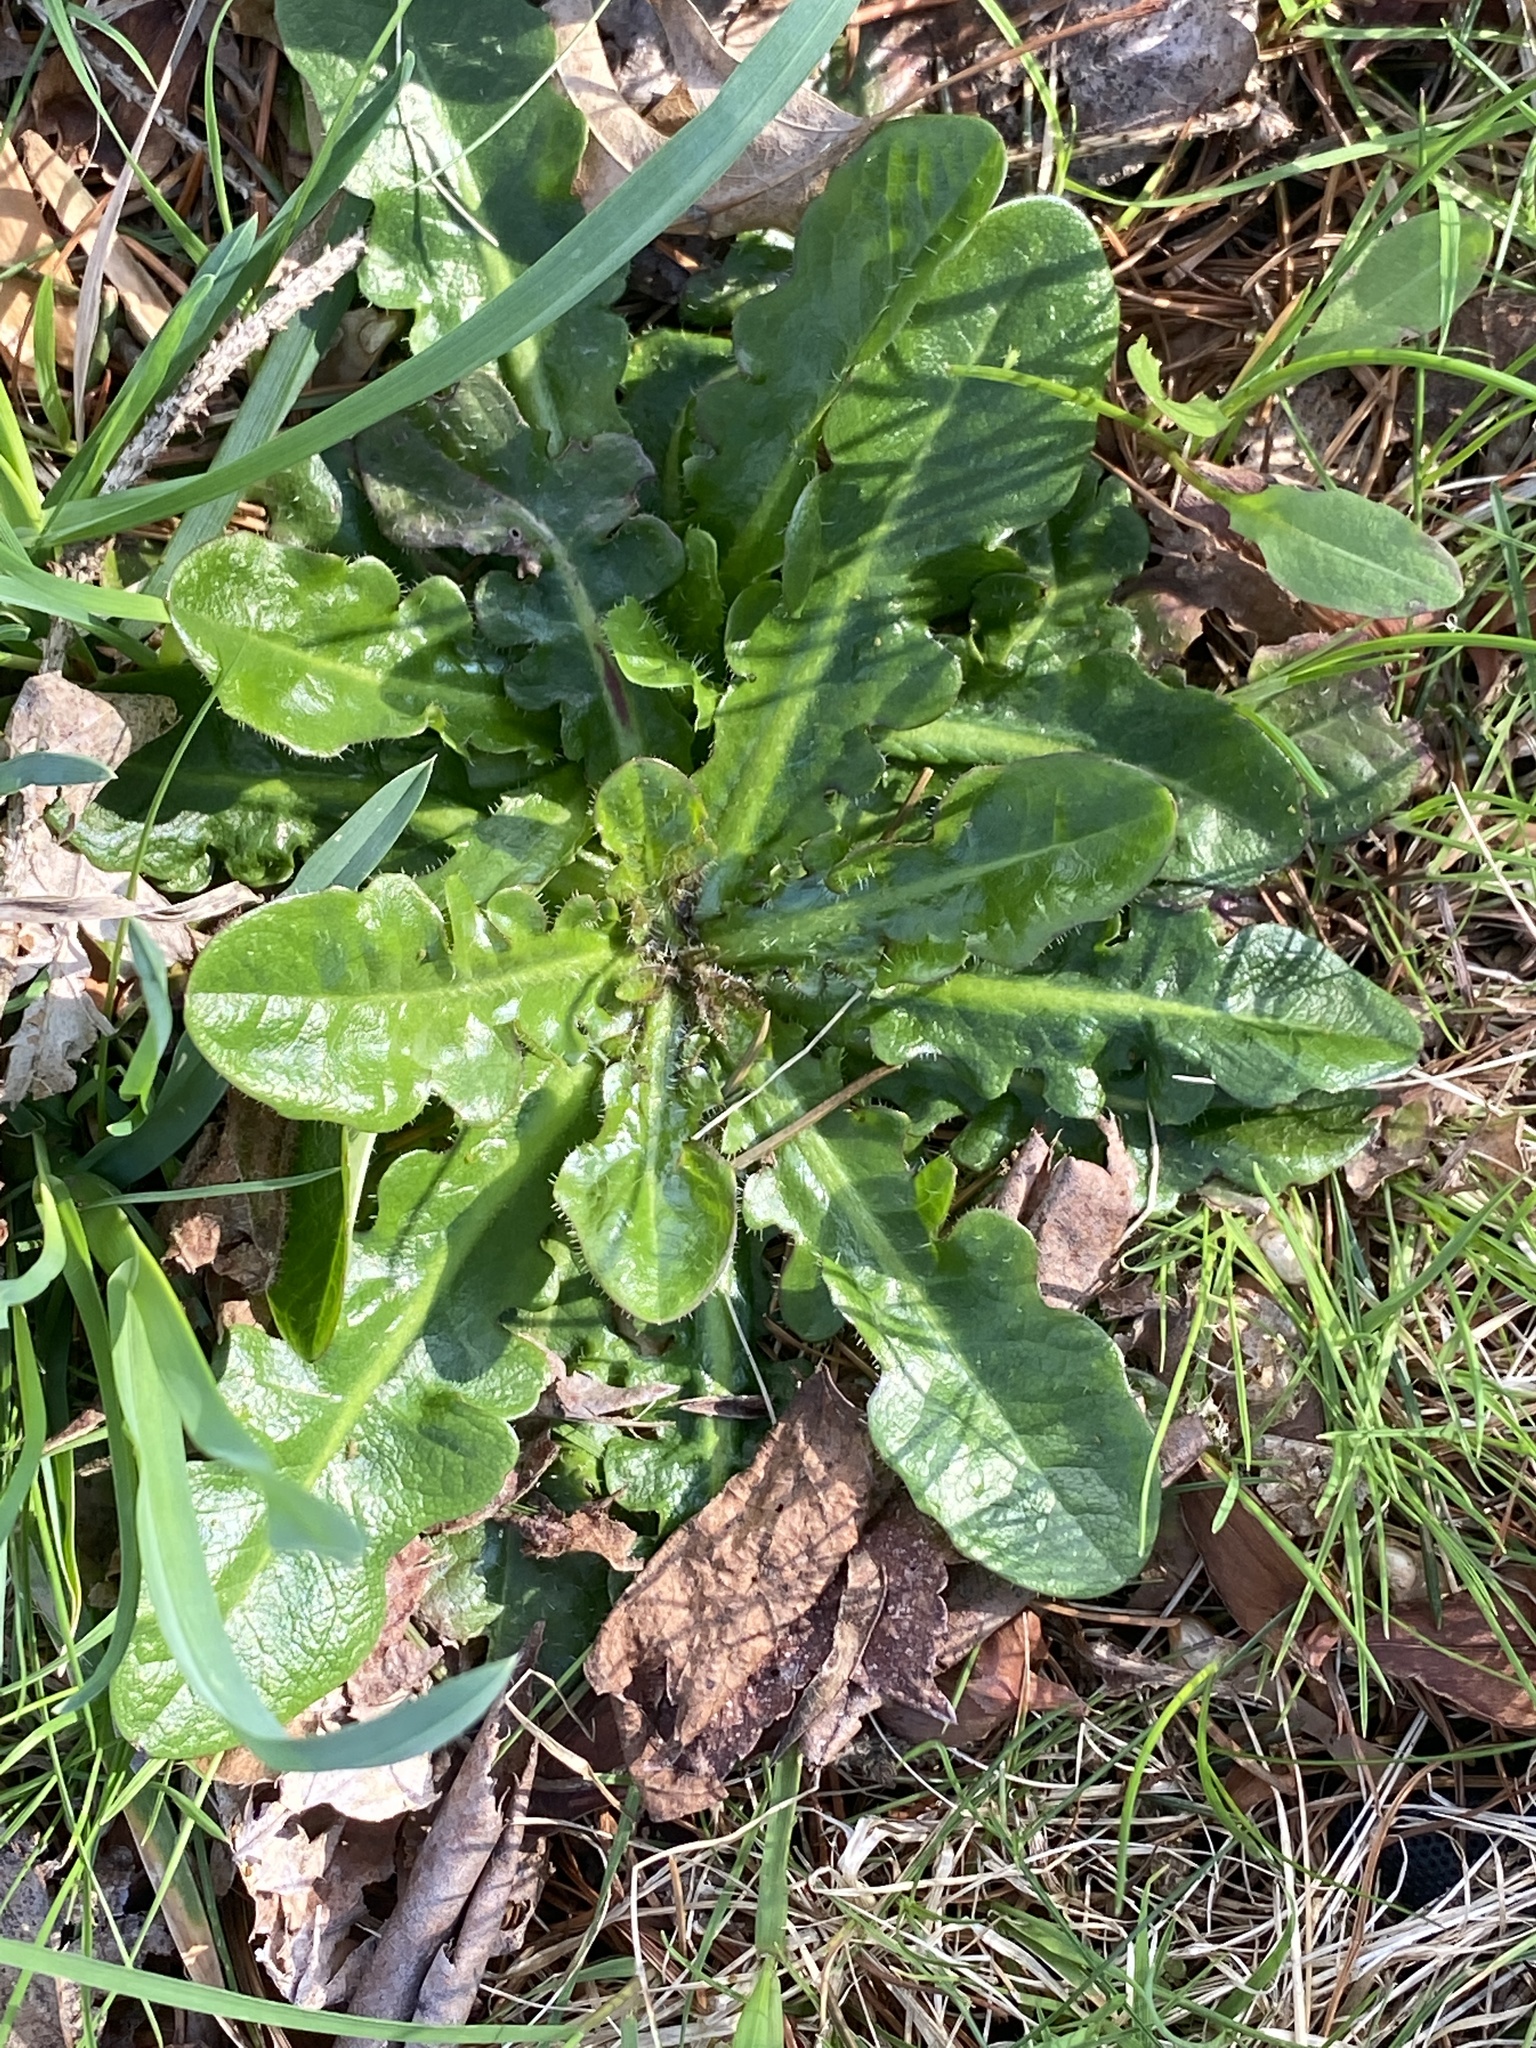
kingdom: Plantae
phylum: Tracheophyta
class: Magnoliopsida
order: Asterales
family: Asteraceae
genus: Hypochaeris
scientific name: Hypochaeris radicata
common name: Flatweed
